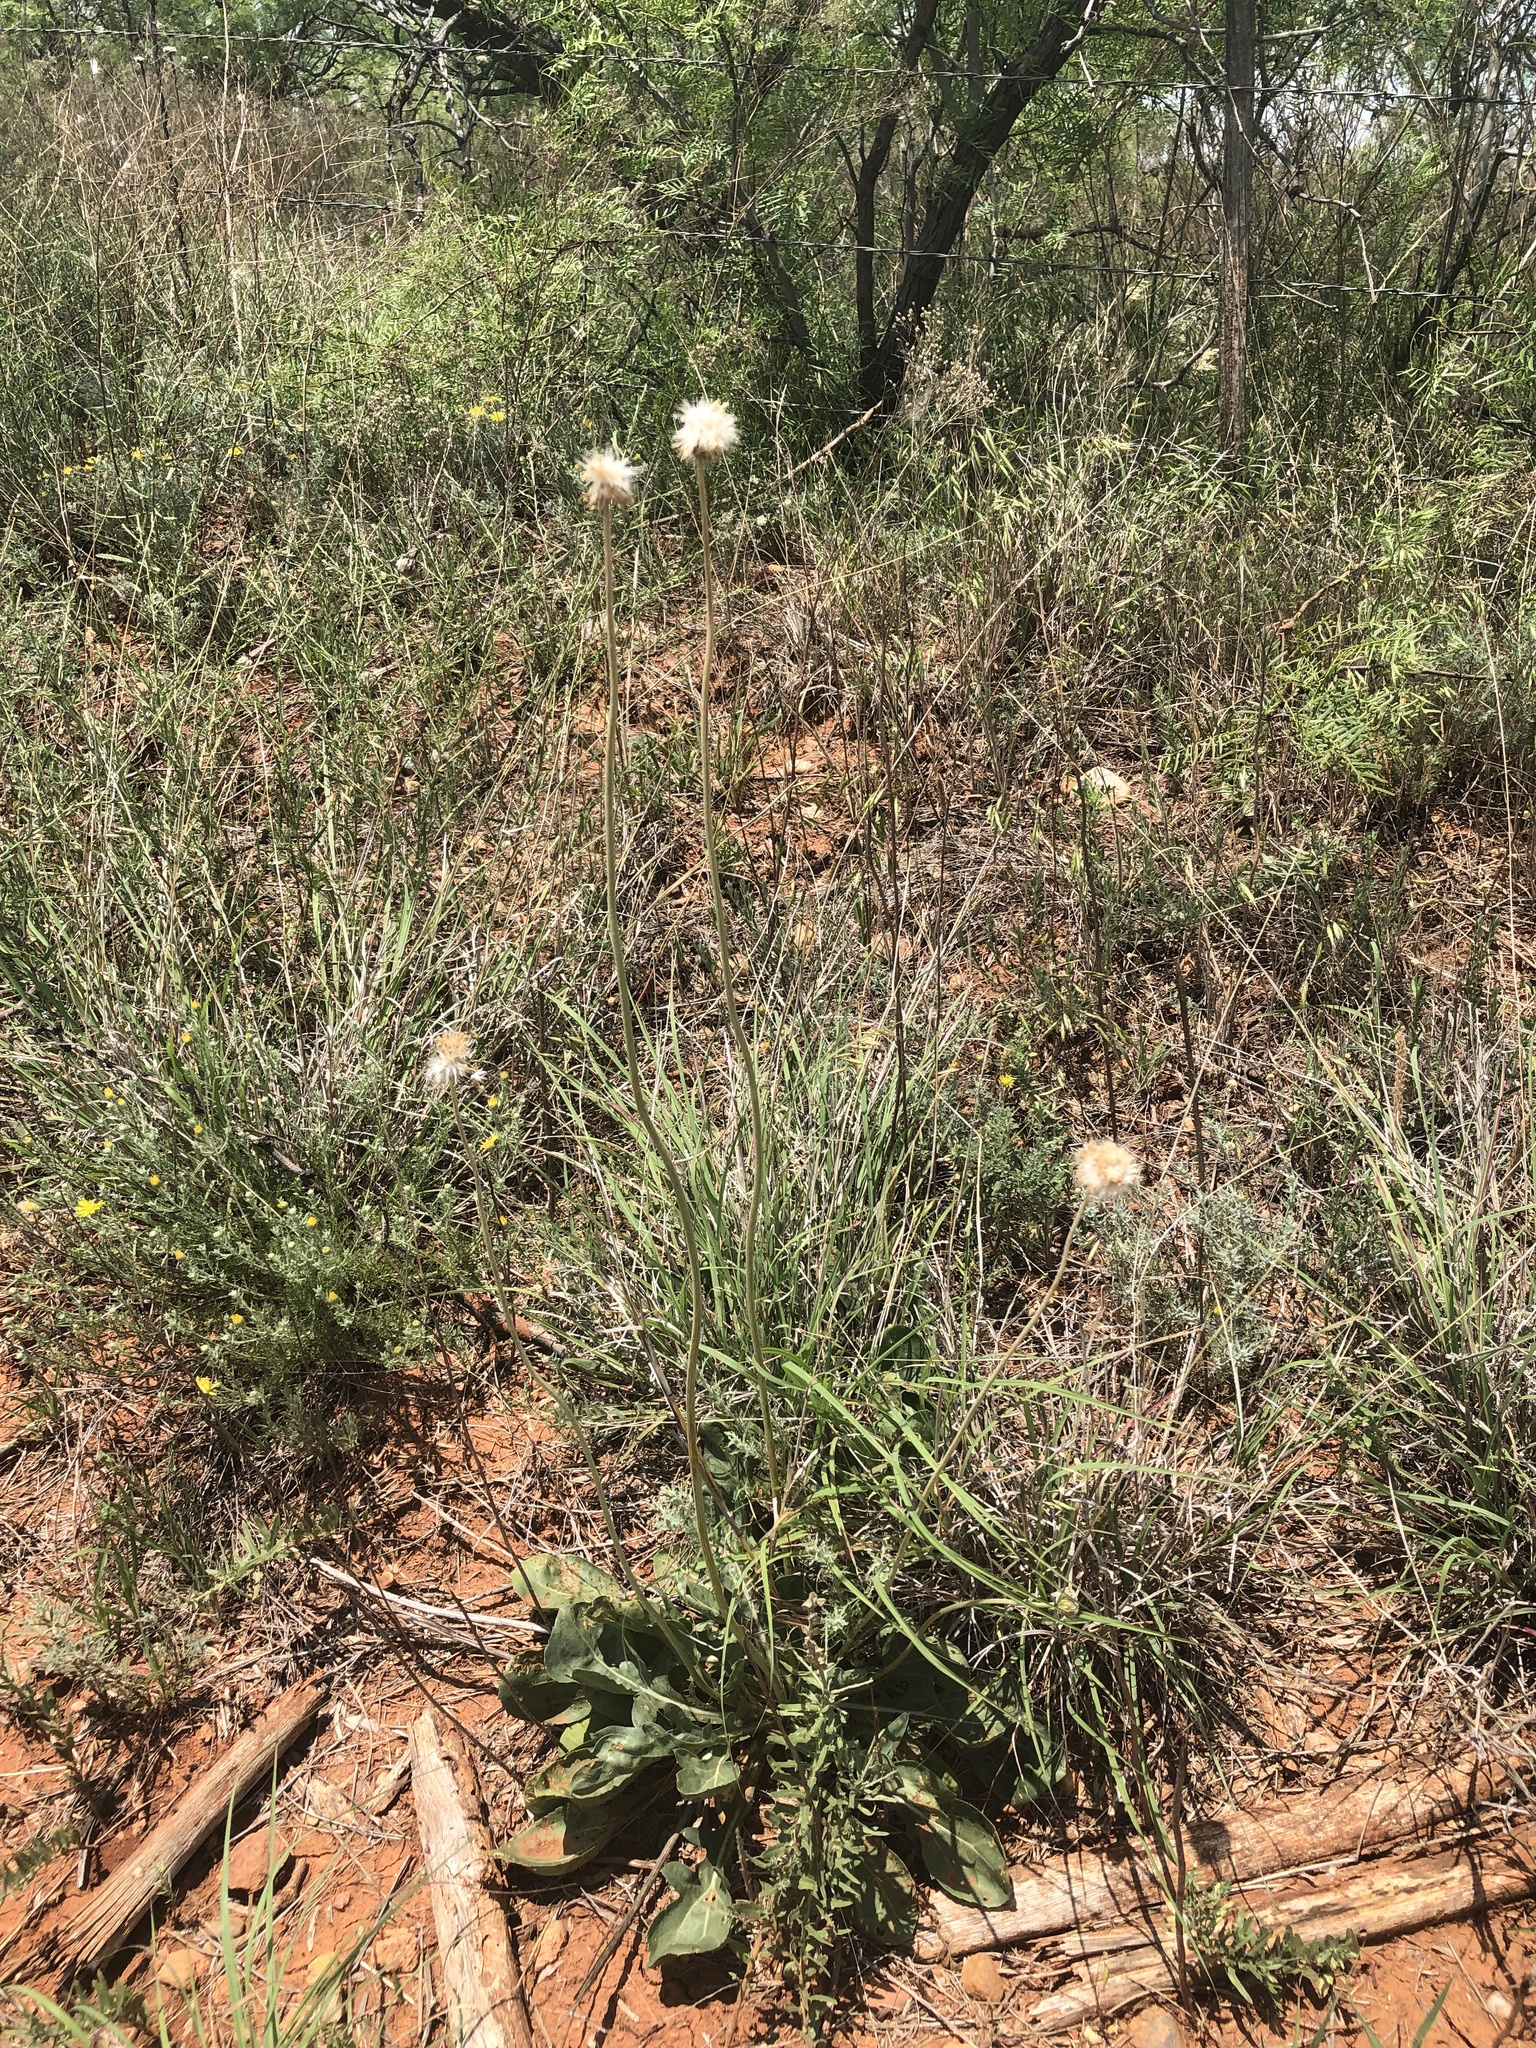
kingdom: Plantae
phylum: Tracheophyta
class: Magnoliopsida
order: Asterales
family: Asteraceae
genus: Gaillardia
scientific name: Gaillardia suavis
